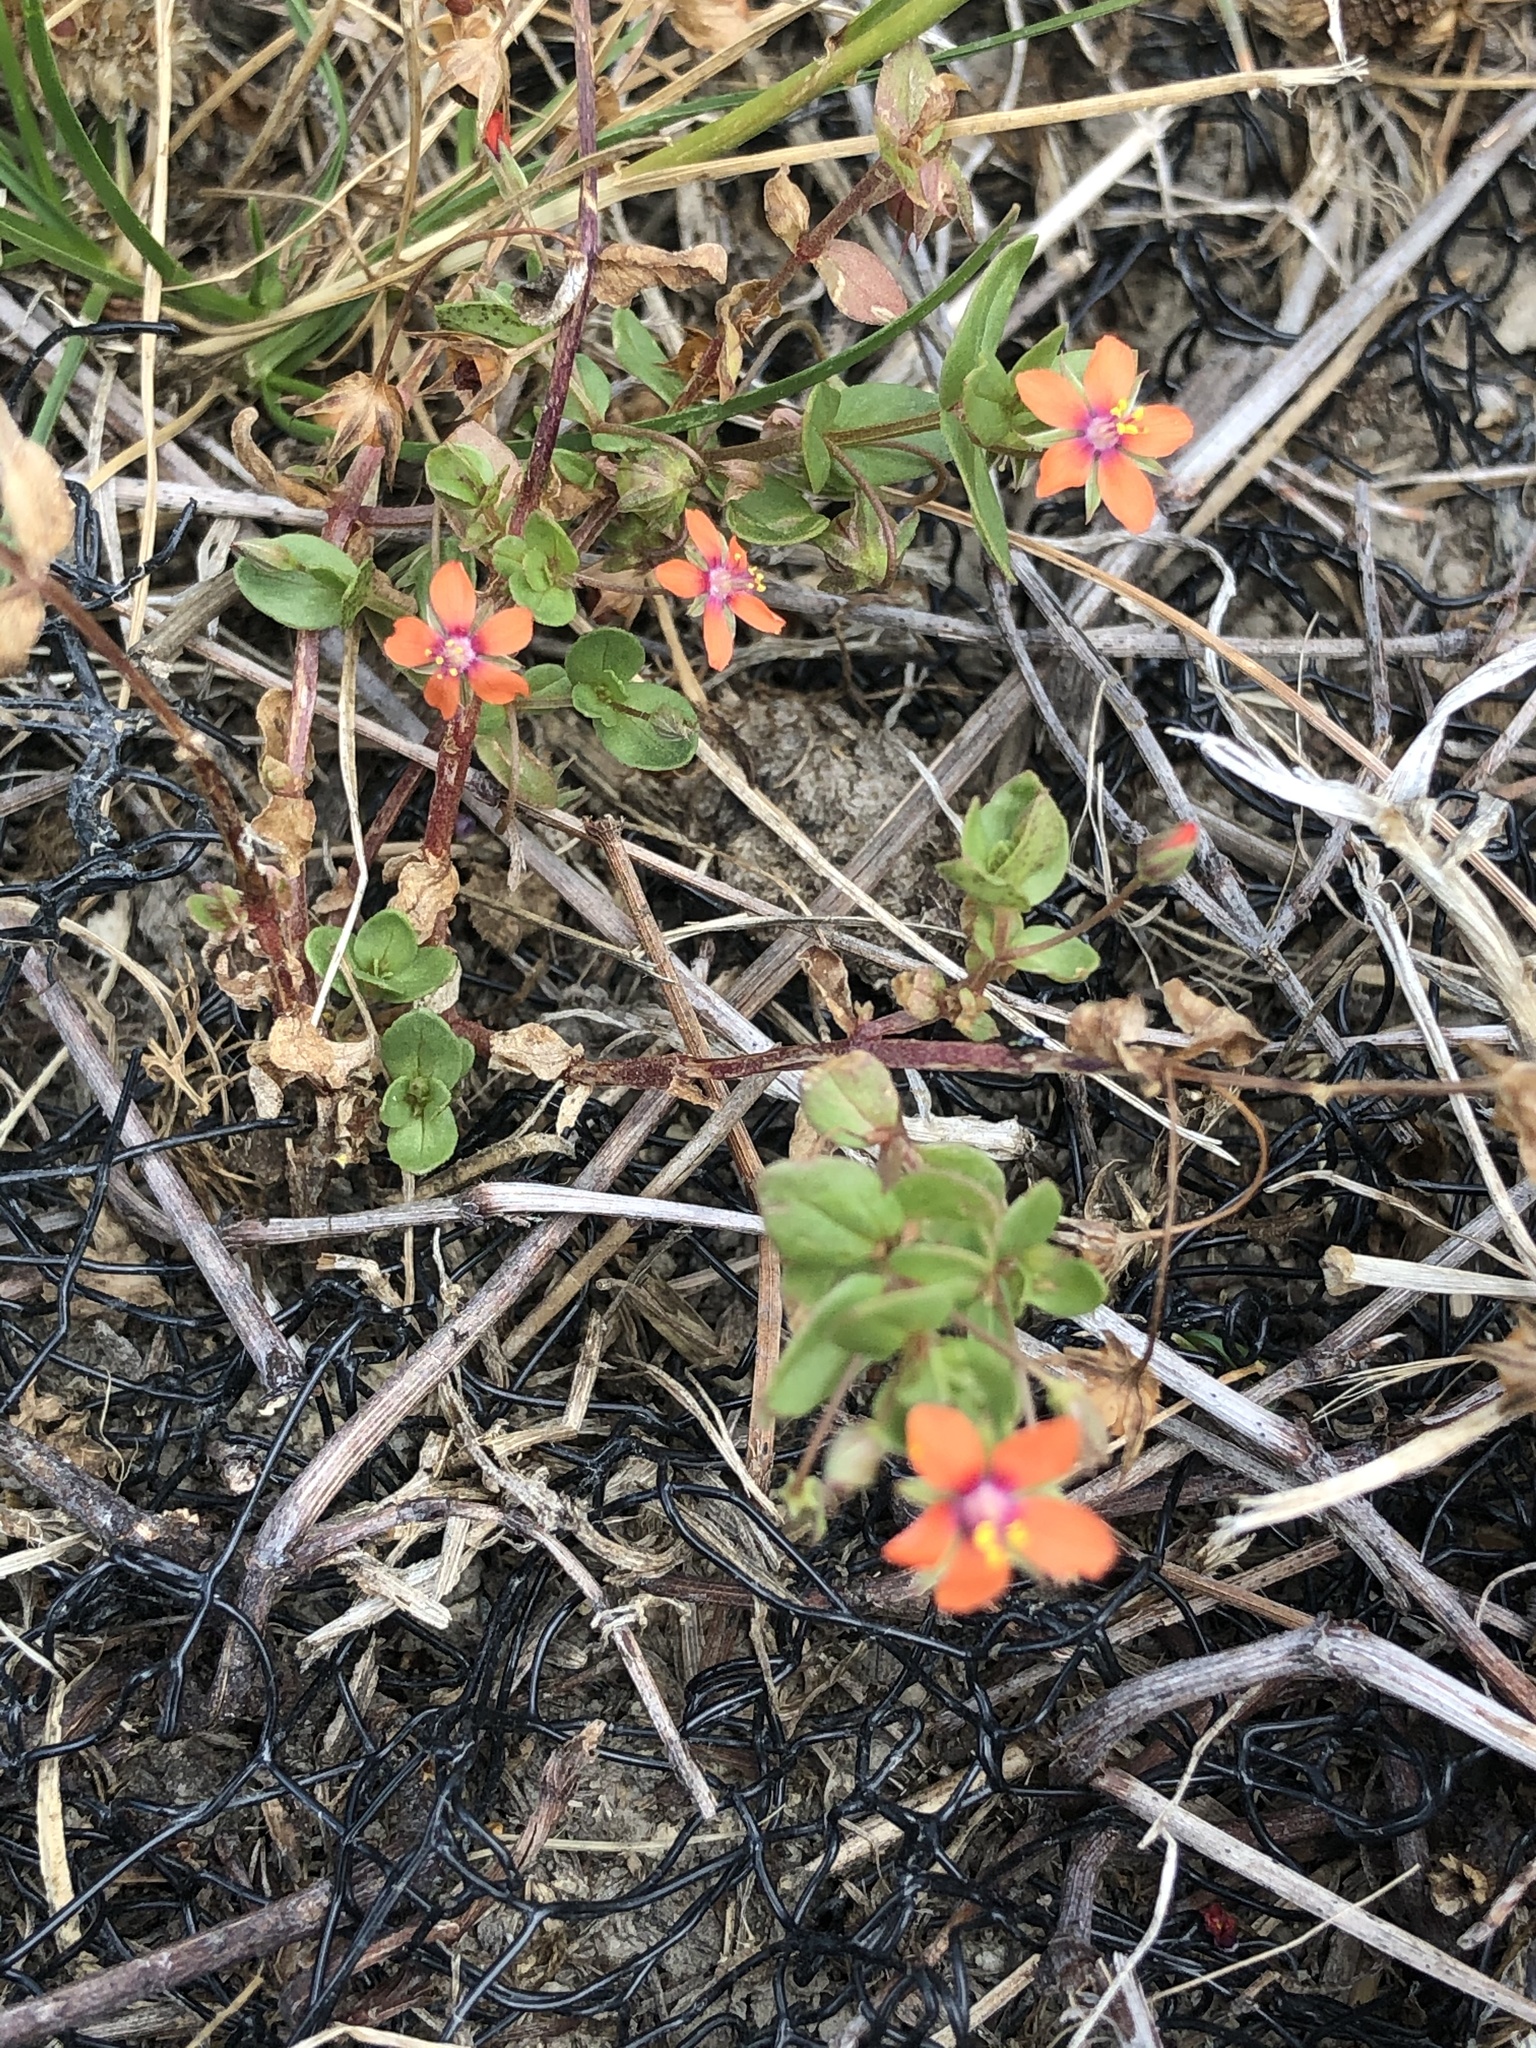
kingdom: Plantae
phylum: Tracheophyta
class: Magnoliopsida
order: Ericales
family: Primulaceae
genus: Lysimachia
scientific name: Lysimachia arvensis
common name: Scarlet pimpernel
